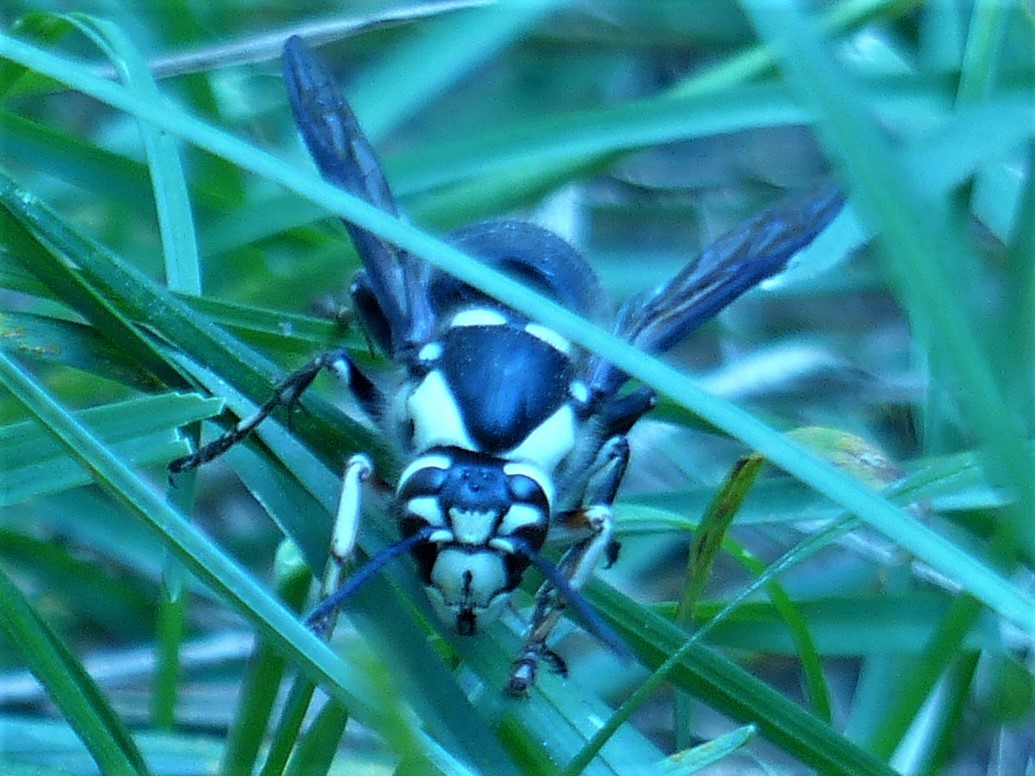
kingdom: Animalia
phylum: Arthropoda
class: Insecta
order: Hymenoptera
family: Vespidae
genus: Dolichovespula
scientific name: Dolichovespula maculata
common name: Bald-faced hornet
